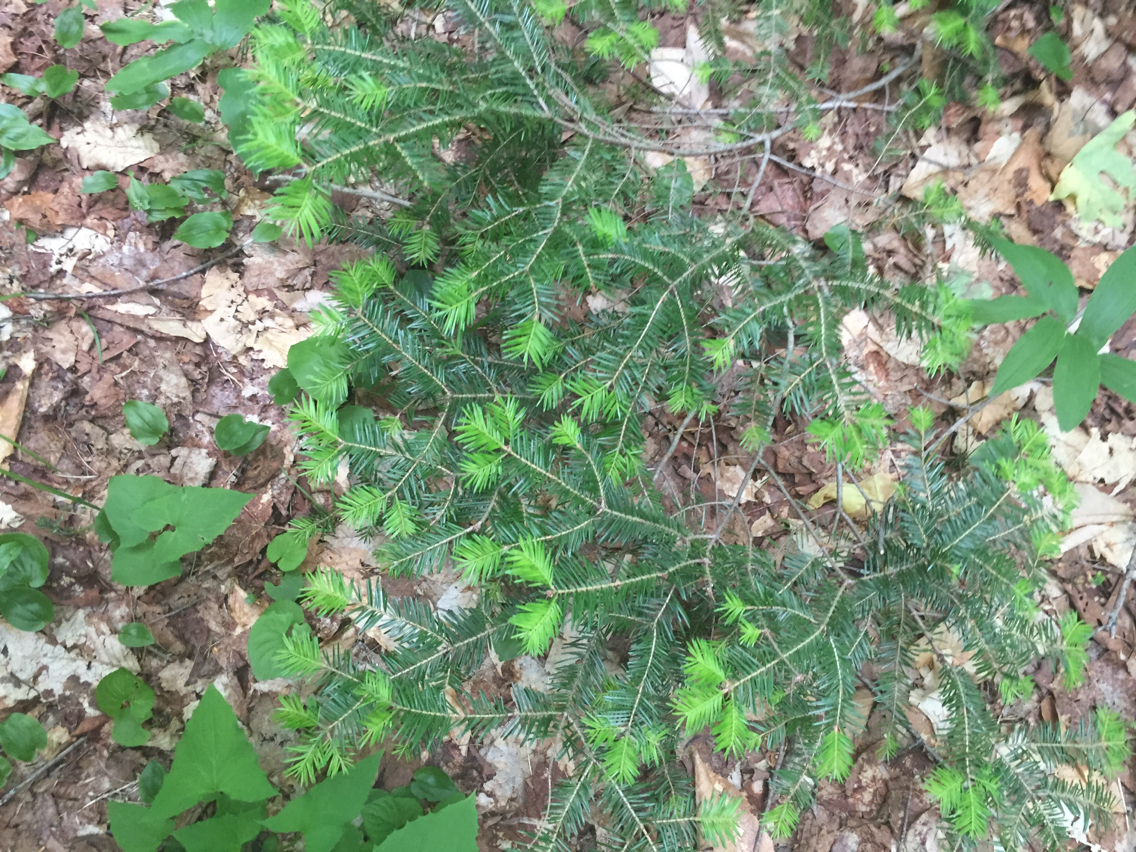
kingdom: Plantae
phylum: Tracheophyta
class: Pinopsida
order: Pinales
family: Pinaceae
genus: Abies
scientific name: Abies balsamea
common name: Balsam fir
